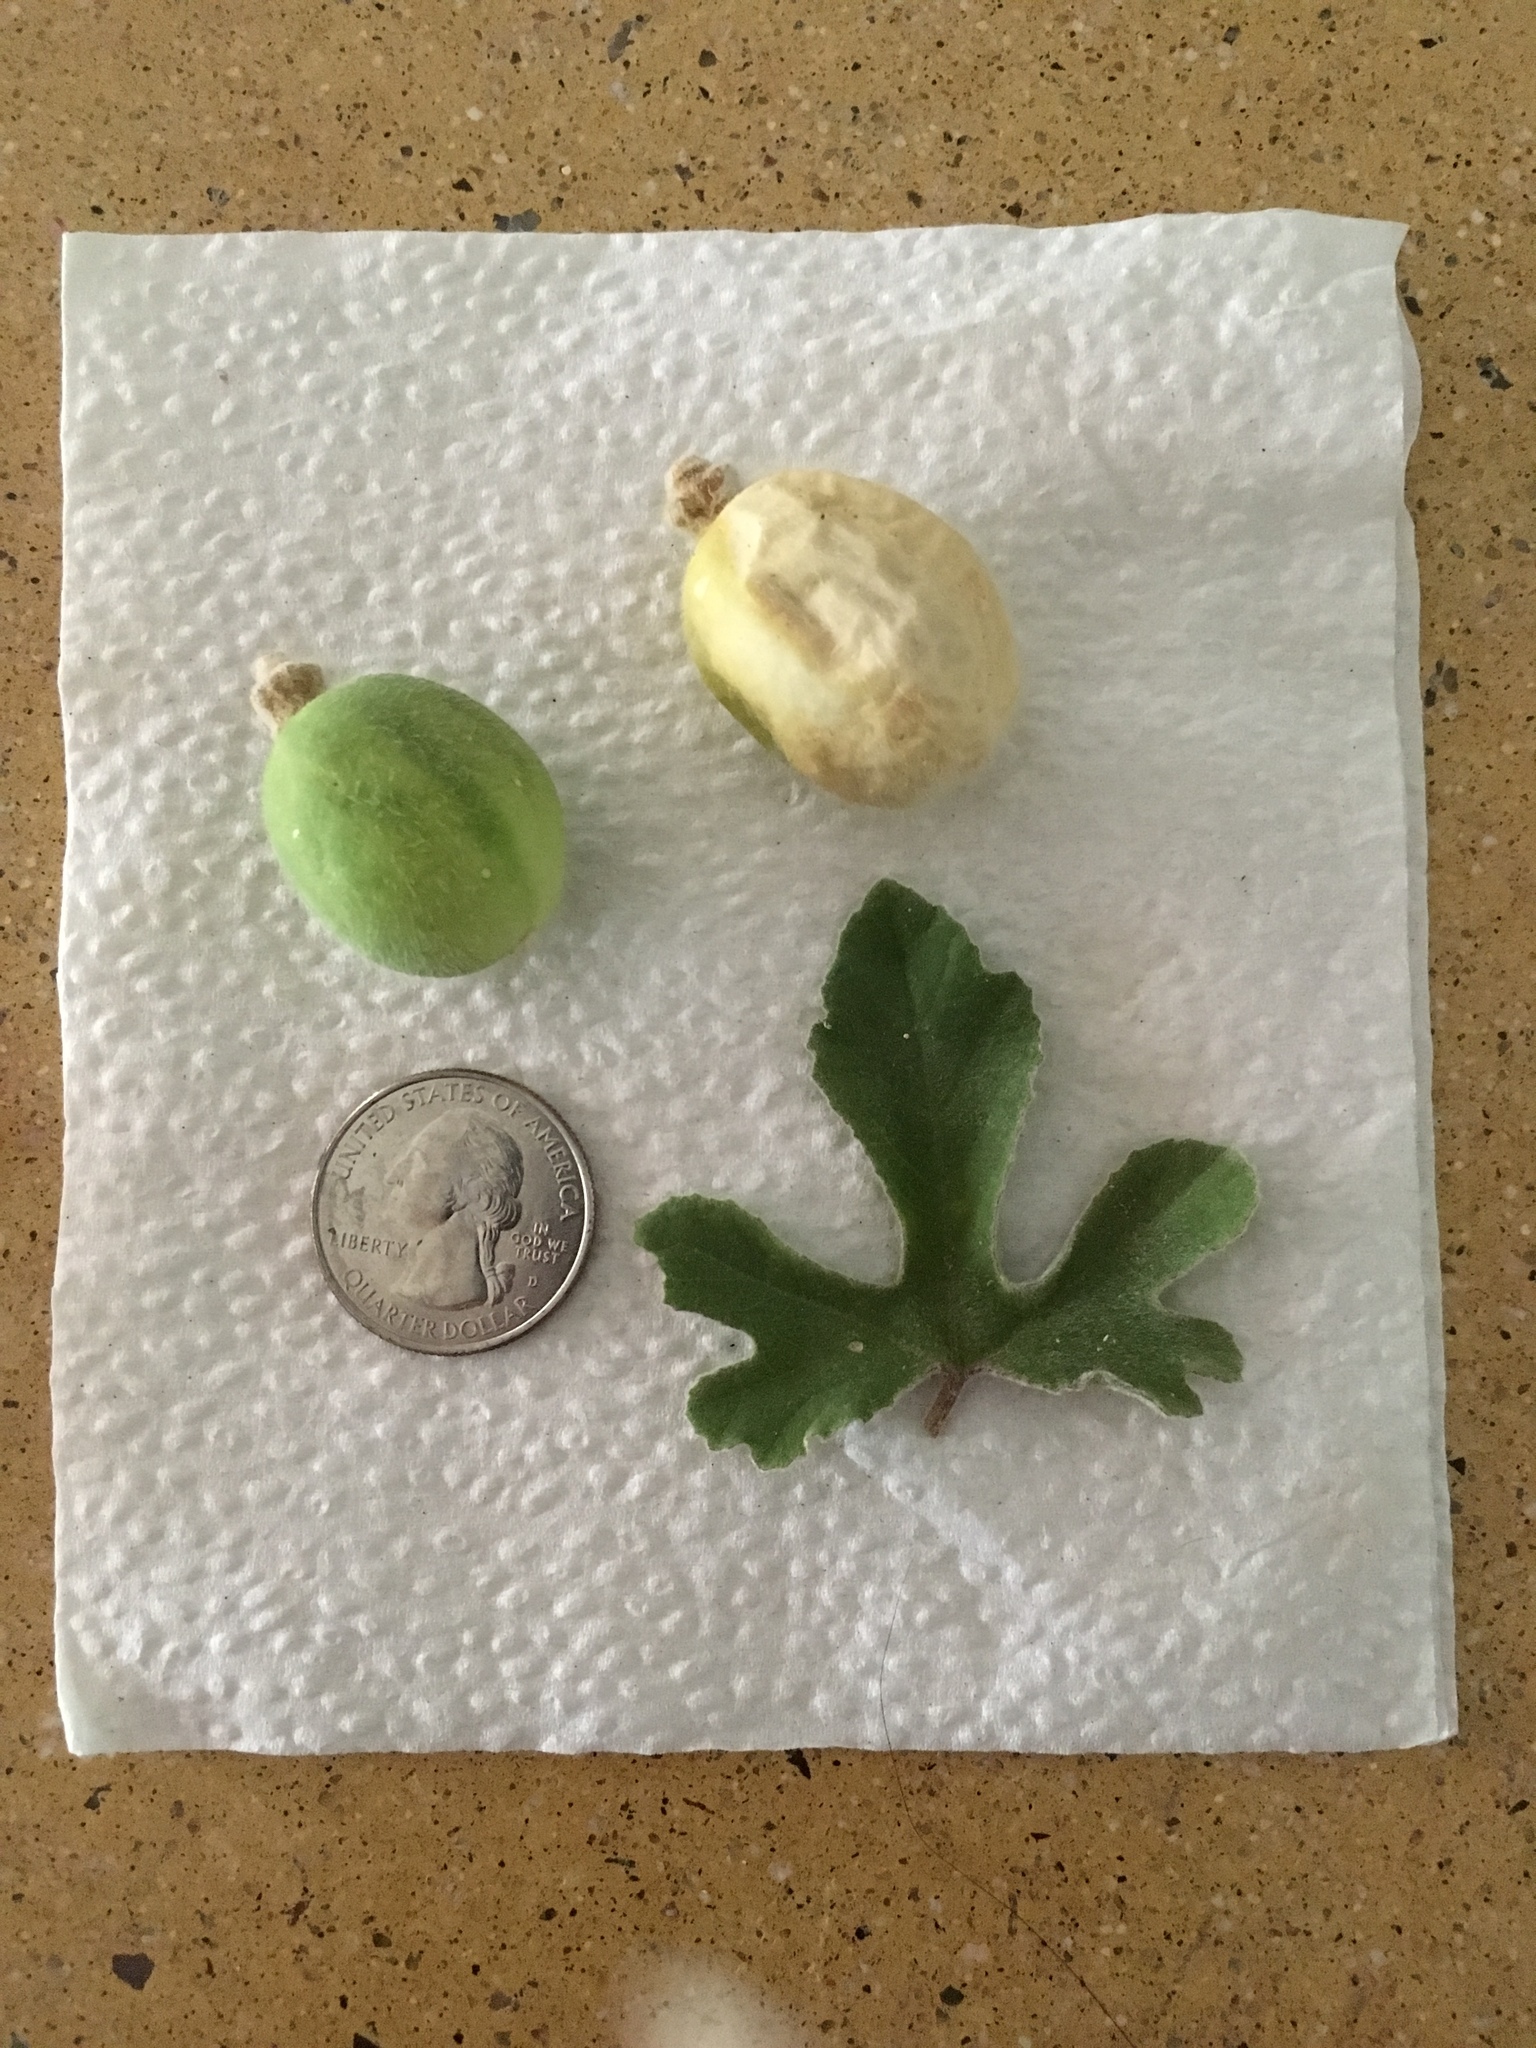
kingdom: Plantae
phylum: Tracheophyta
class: Magnoliopsida
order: Malpighiales
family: Passifloraceae
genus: Passiflora
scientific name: Passiflora pentaschista
